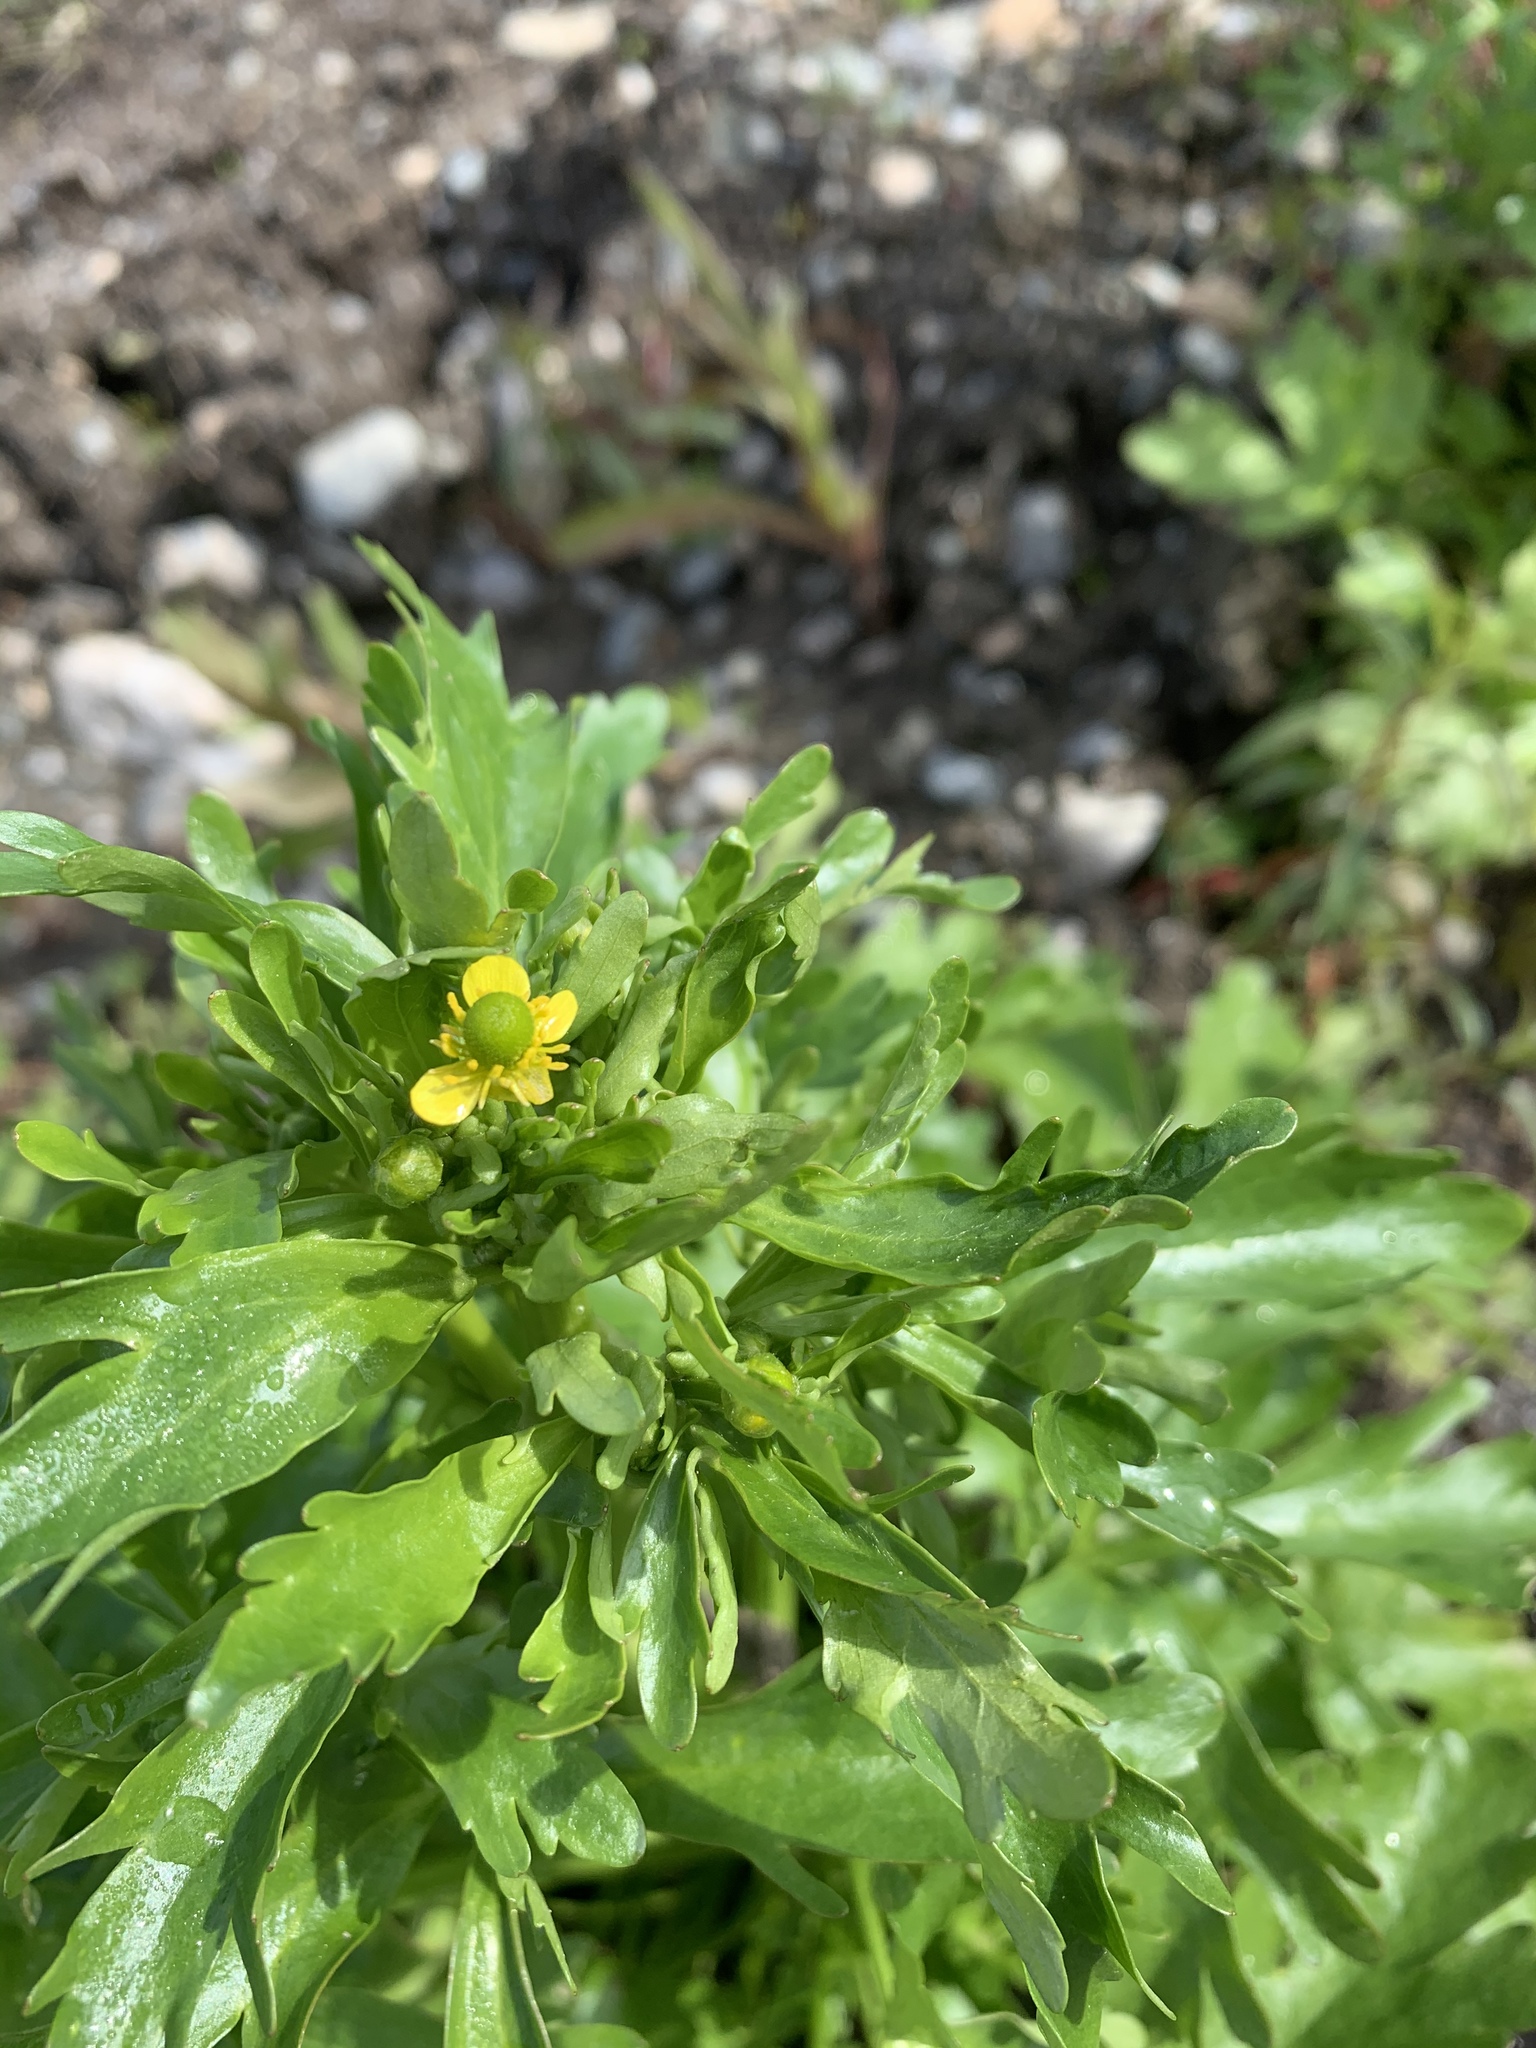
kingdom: Plantae
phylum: Tracheophyta
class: Magnoliopsida
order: Ranunculales
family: Ranunculaceae
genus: Ranunculus
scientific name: Ranunculus sceleratus
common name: Celery-leaved buttercup
